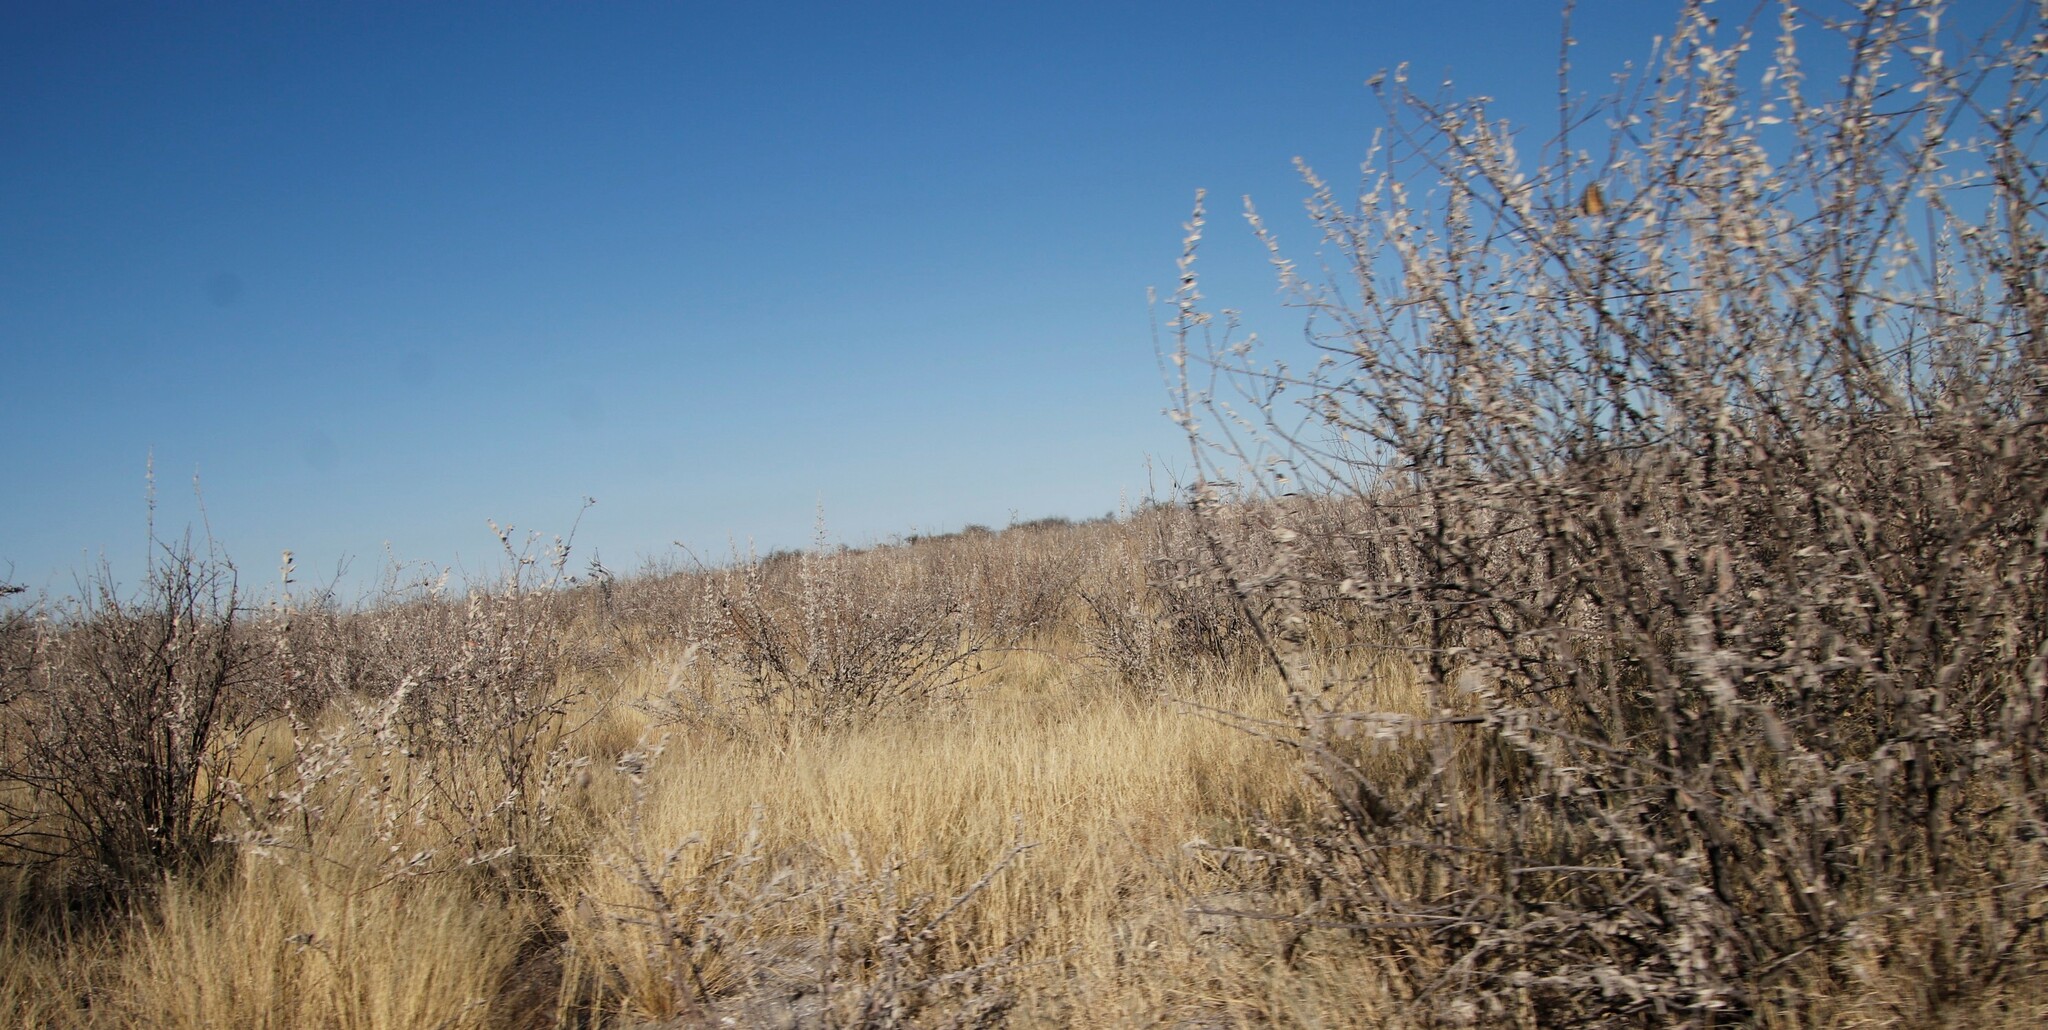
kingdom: Plantae
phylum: Tracheophyta
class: Magnoliopsida
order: Lamiales
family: Bignoniaceae
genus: Catophractes
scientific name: Catophractes alexandri
